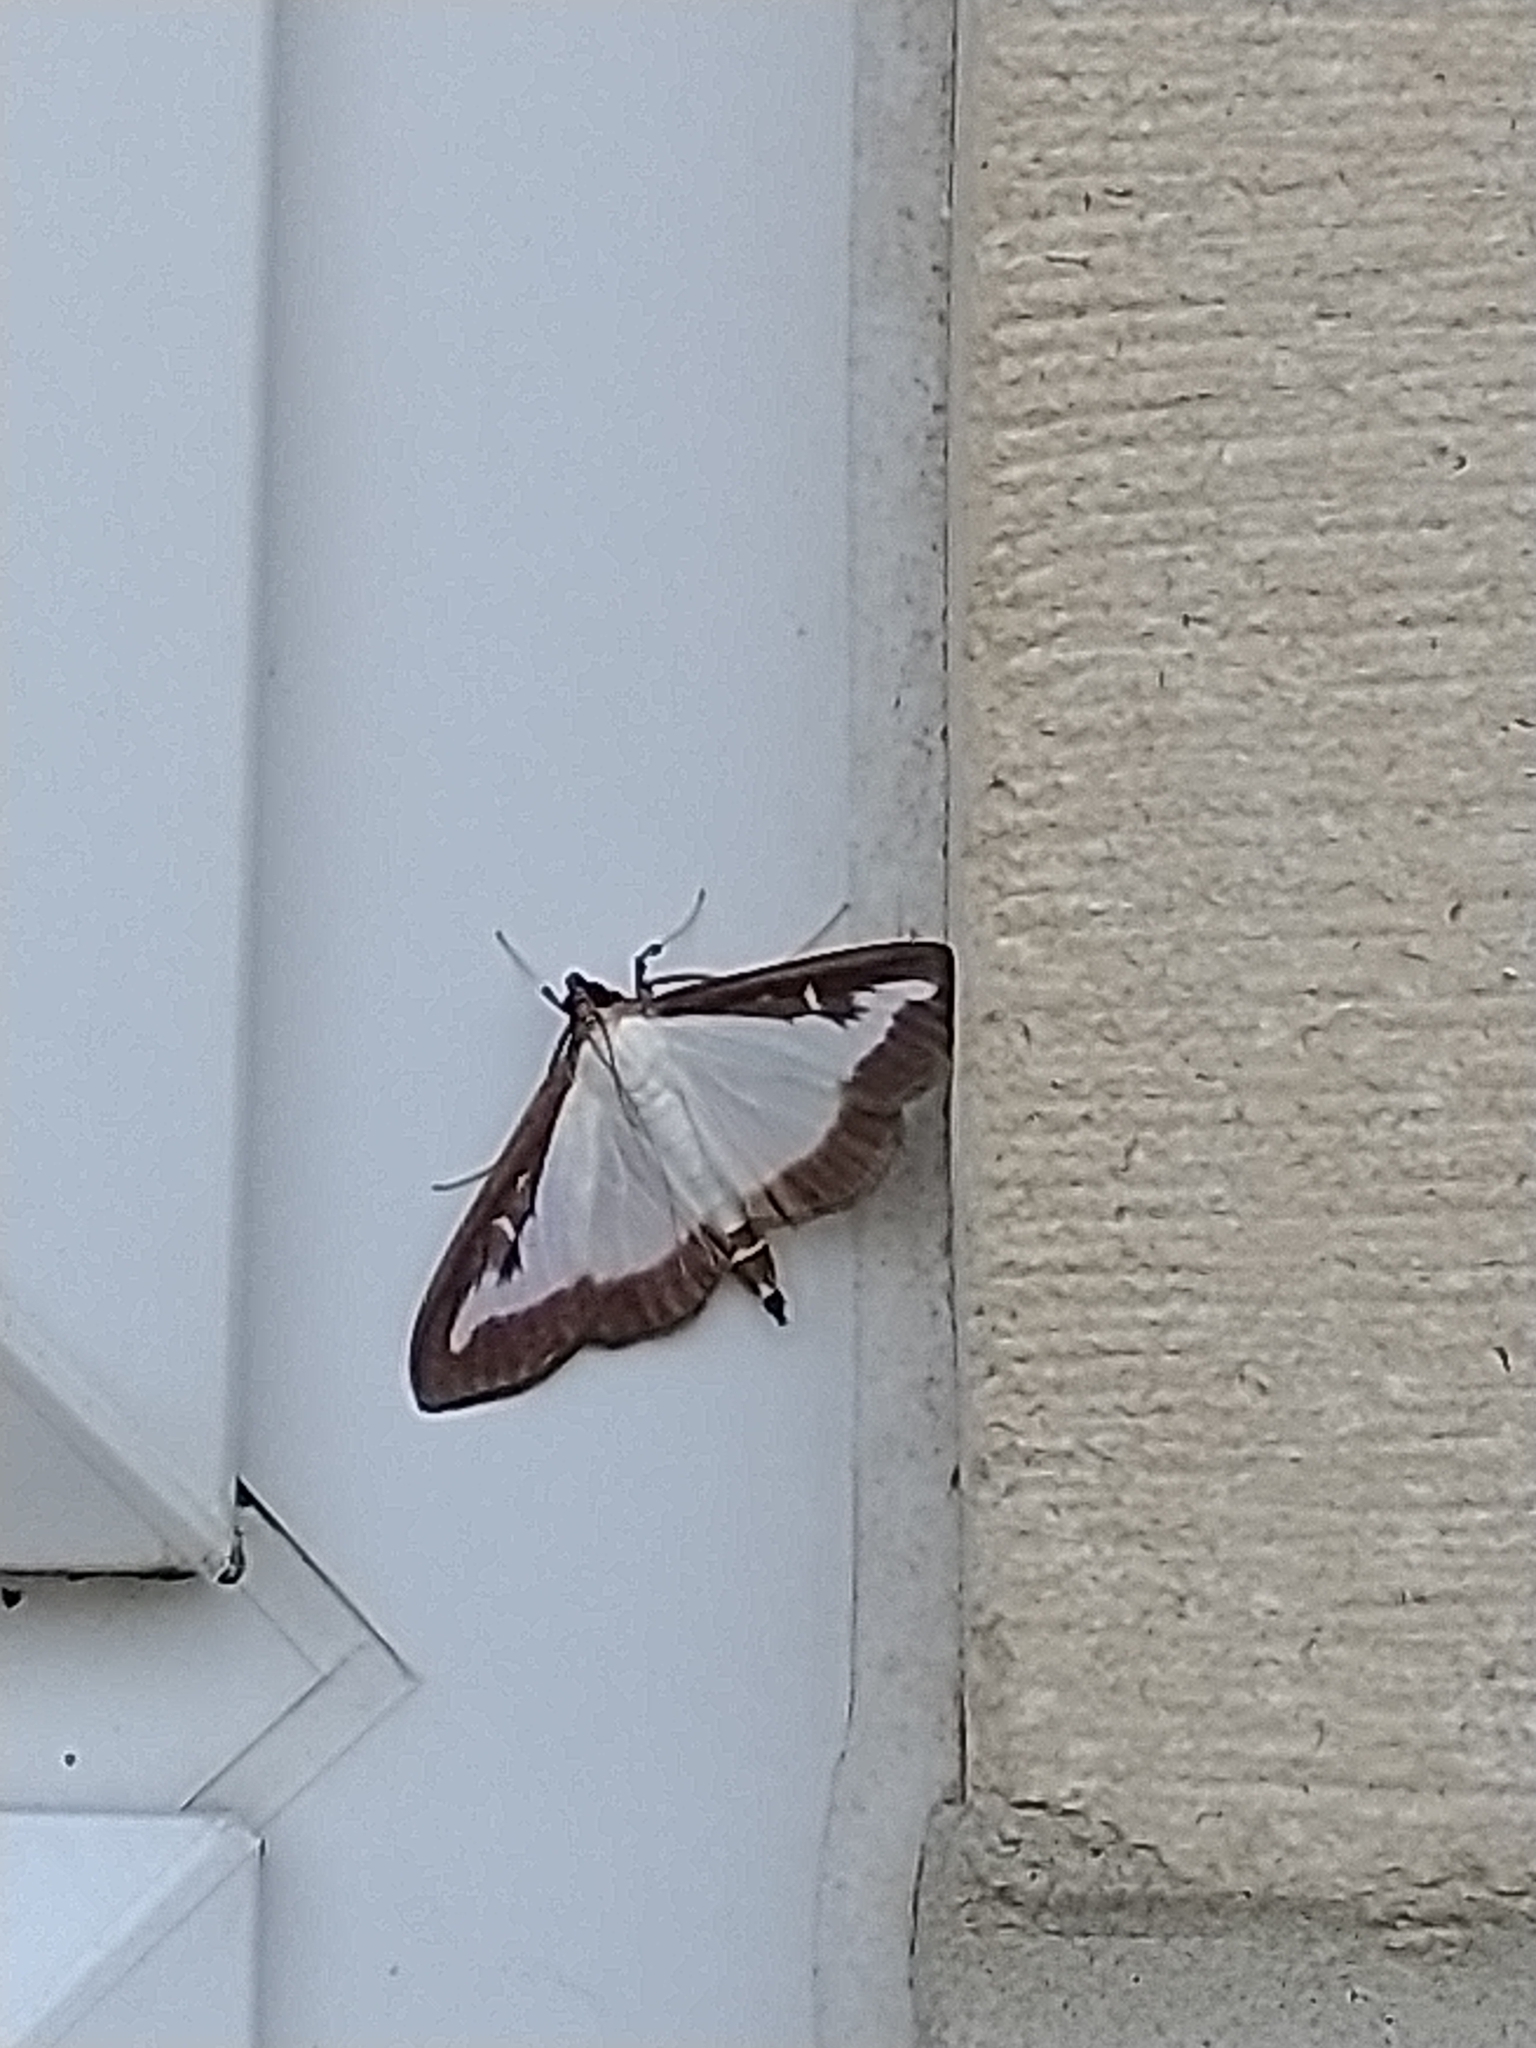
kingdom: Animalia
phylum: Arthropoda
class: Insecta
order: Lepidoptera
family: Crambidae
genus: Cydalima
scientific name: Cydalima perspectalis
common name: Box tree moth
